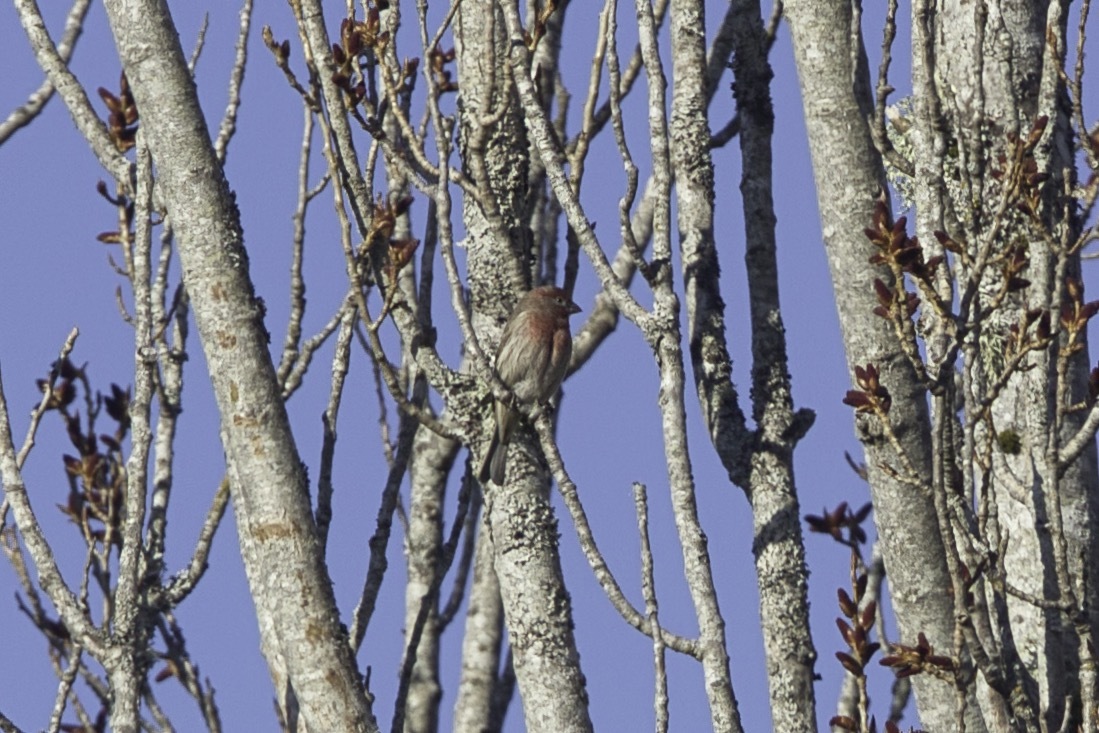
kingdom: Animalia
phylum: Chordata
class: Aves
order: Passeriformes
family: Fringillidae
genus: Haemorhous
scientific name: Haemorhous mexicanus
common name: House finch
